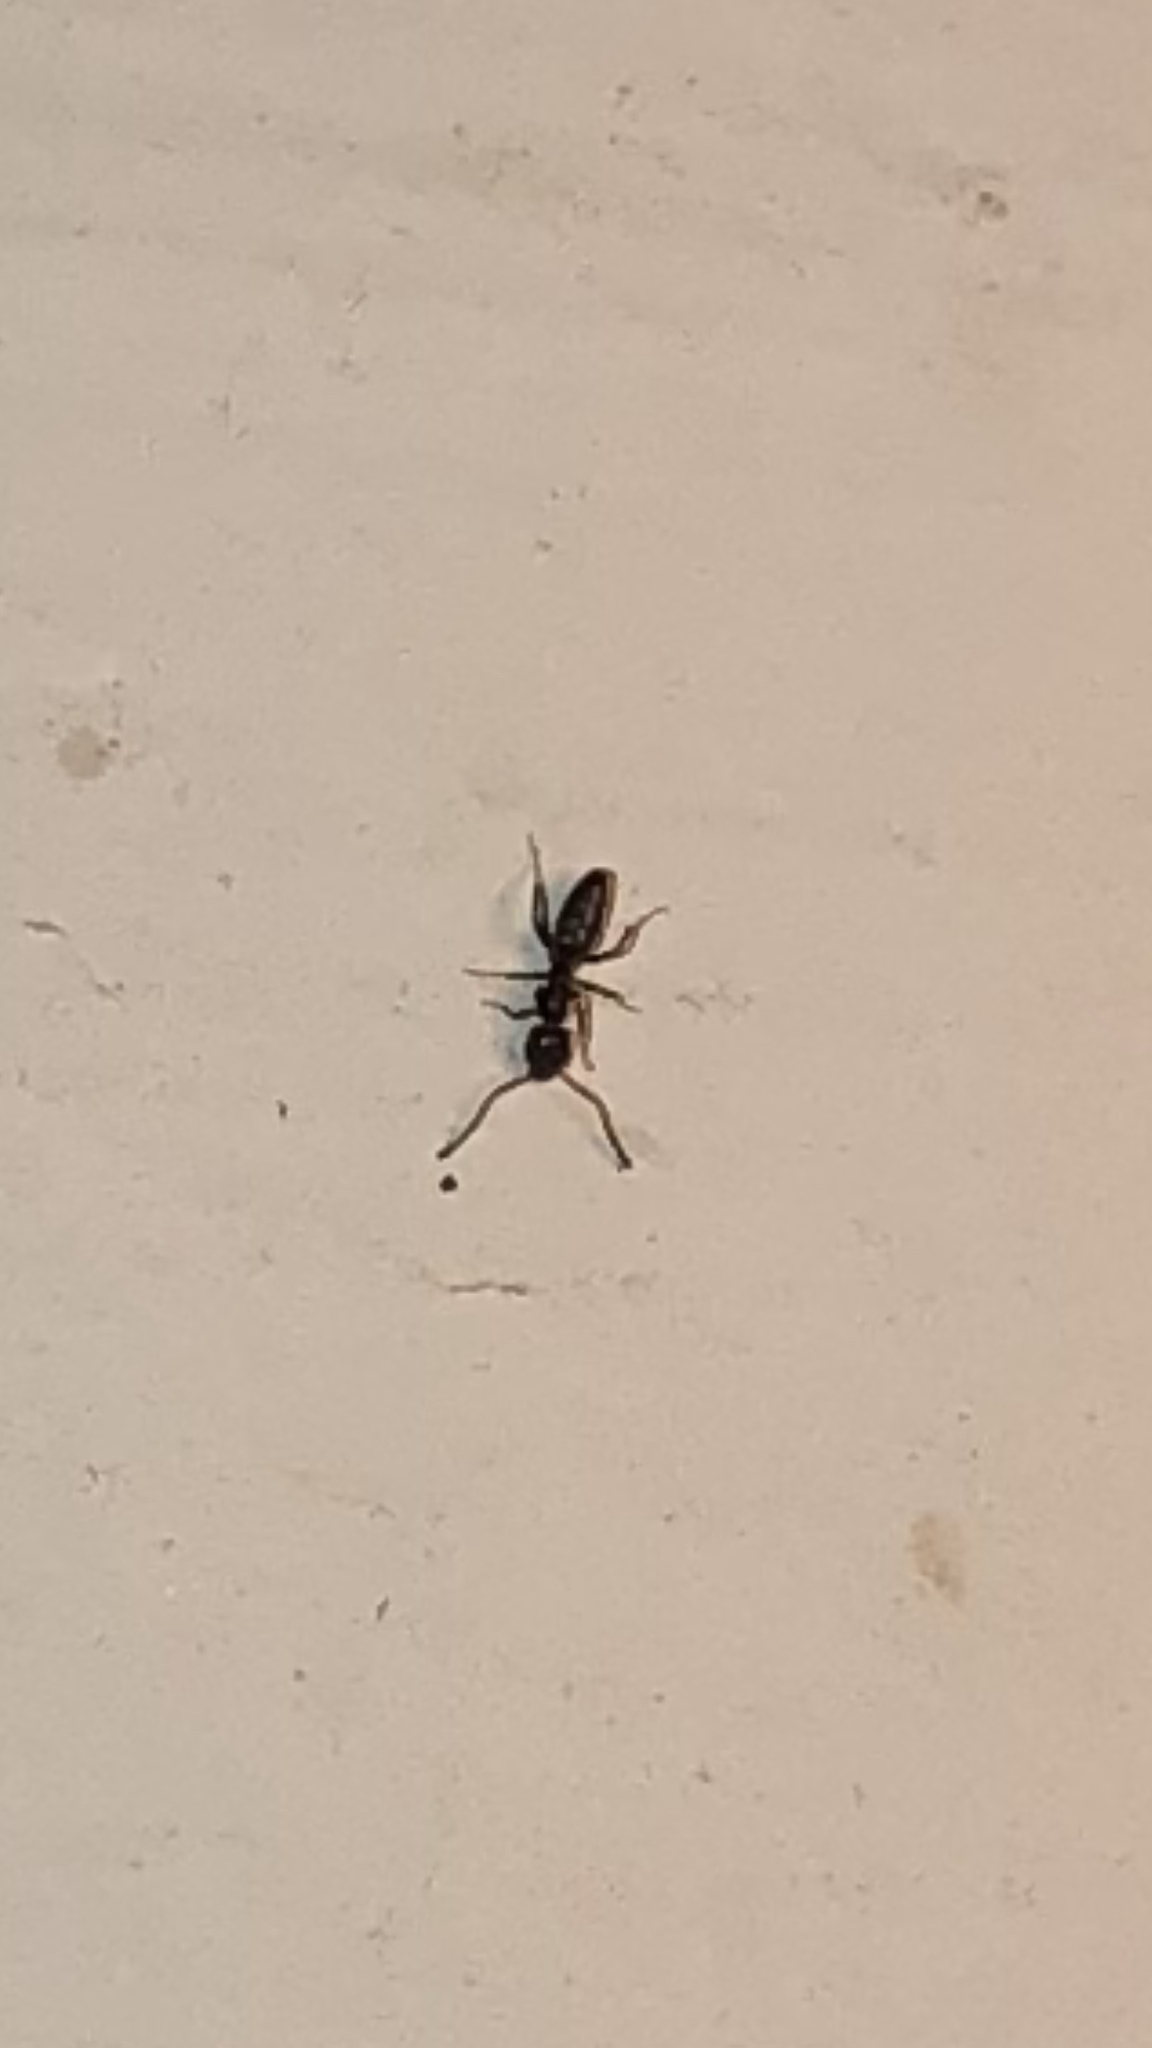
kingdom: Animalia
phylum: Arthropoda
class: Insecta
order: Hymenoptera
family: Formicidae
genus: Tapinoma
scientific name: Tapinoma sessile
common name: Odorous house ant
